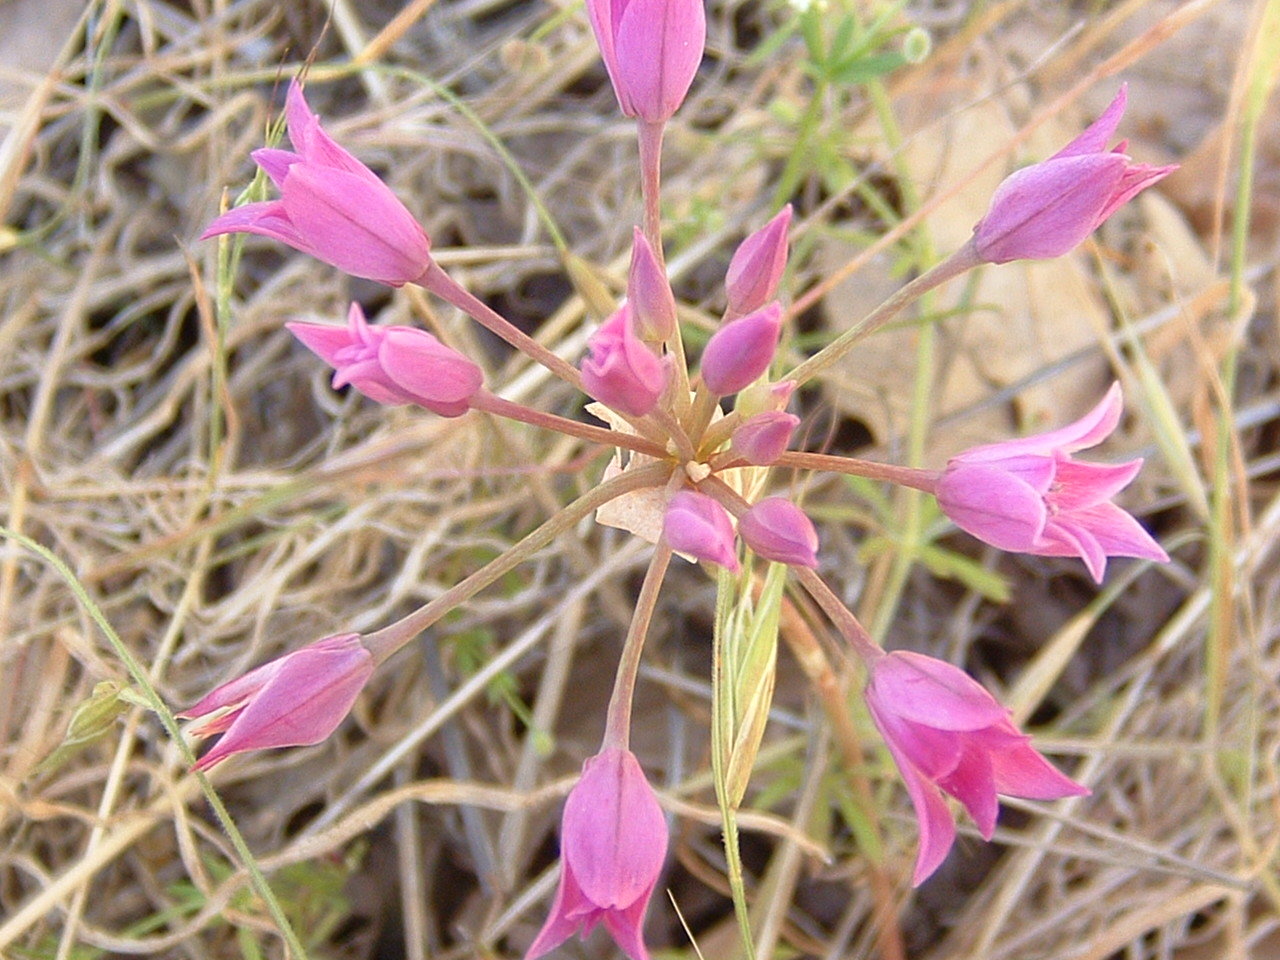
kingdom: Plantae
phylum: Tracheophyta
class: Liliopsida
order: Asparagales
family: Amaryllidaceae
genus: Allium
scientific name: Allium peninsulare
